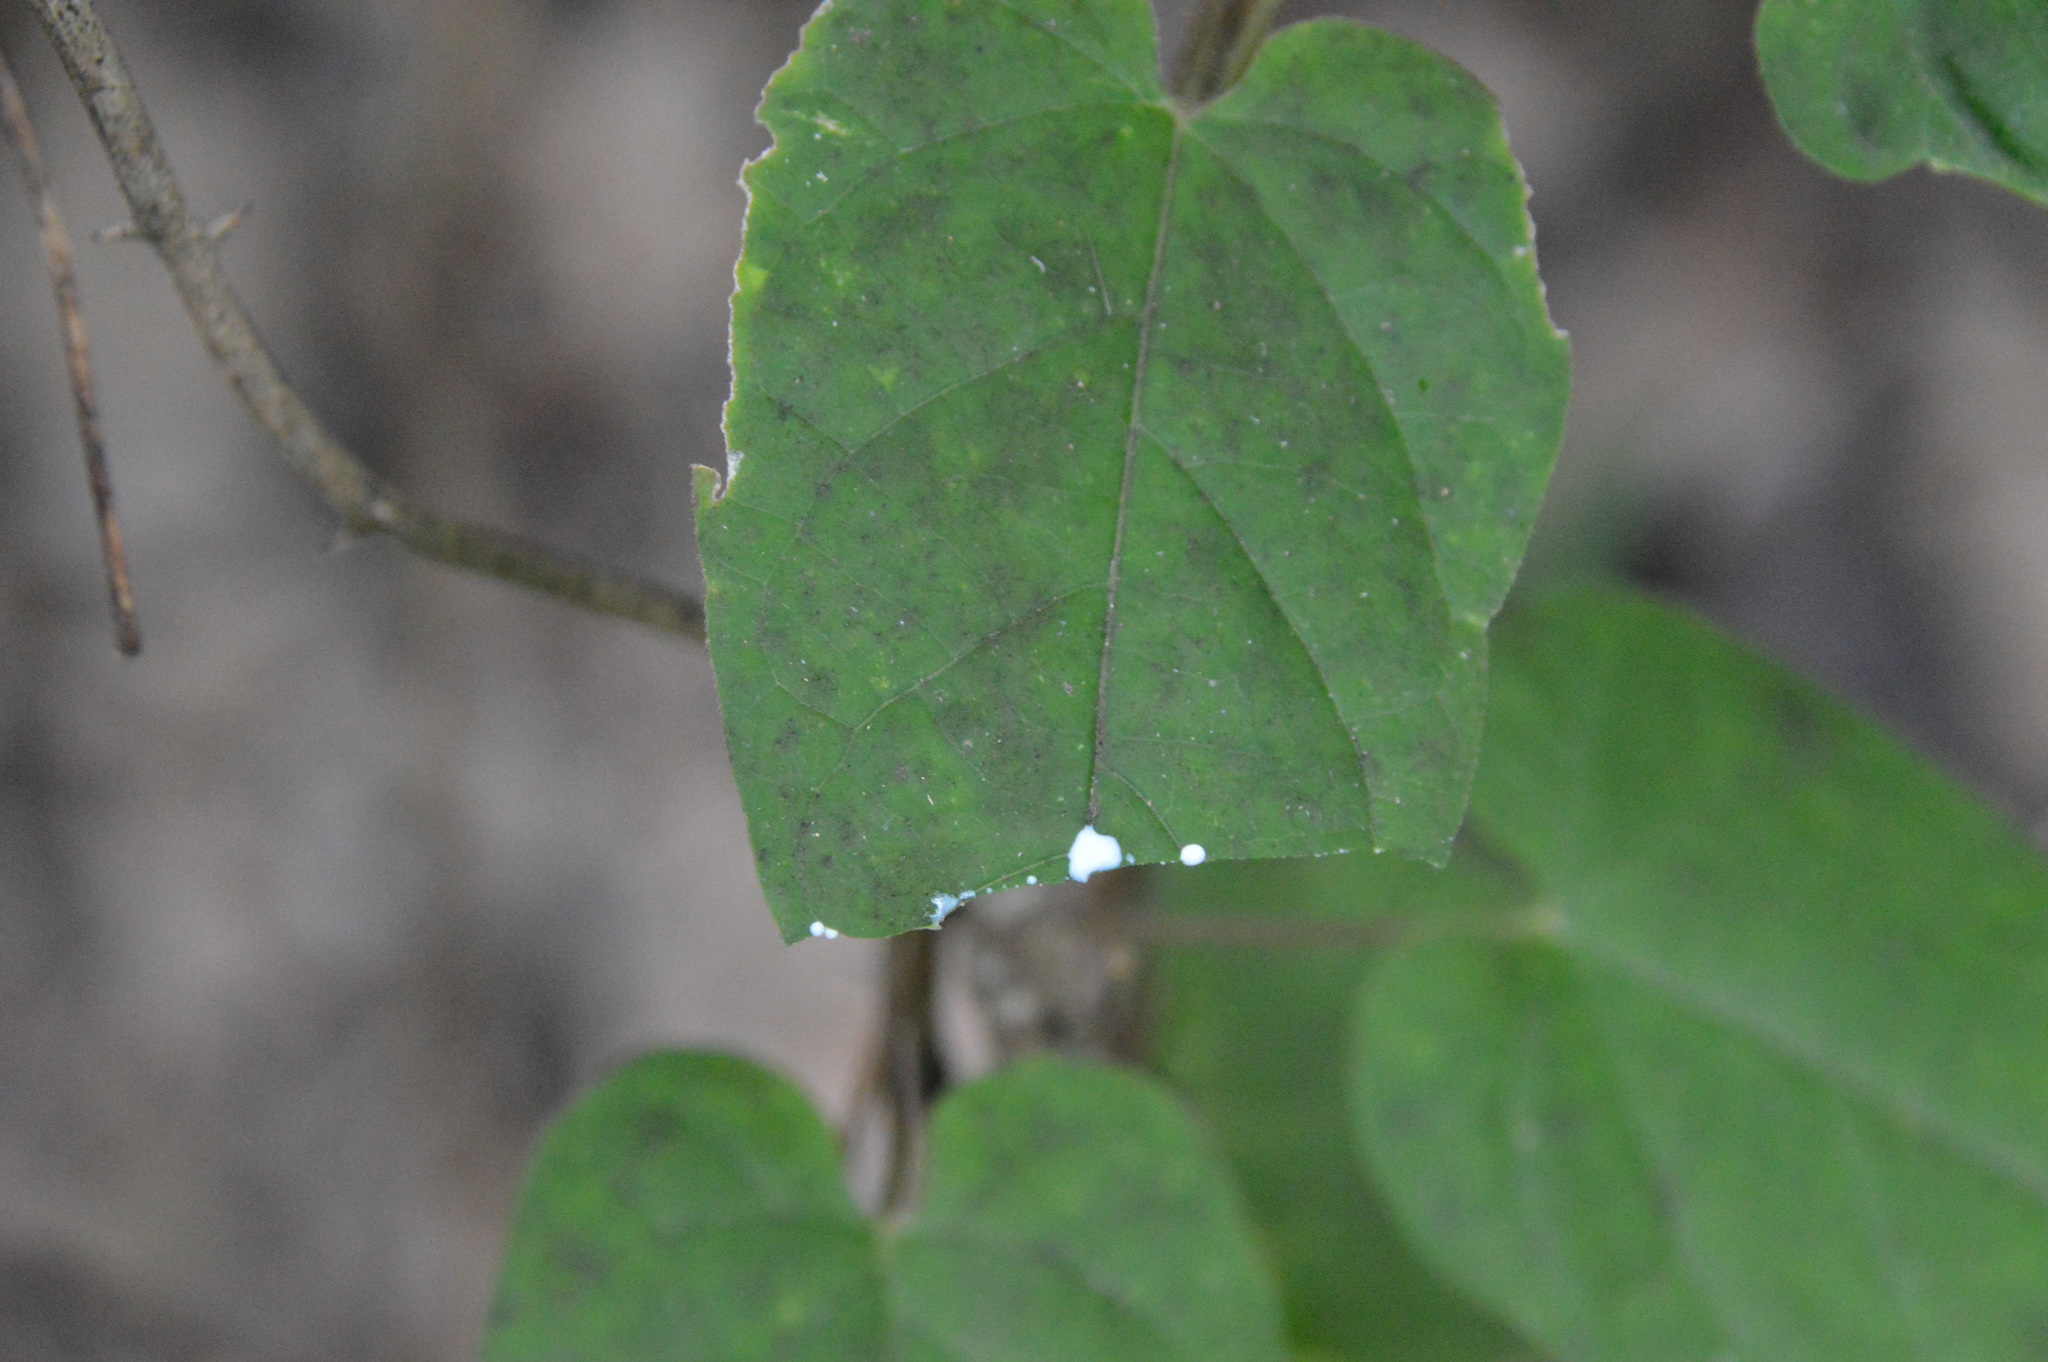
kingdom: Plantae
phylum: Tracheophyta
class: Magnoliopsida
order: Gentianales
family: Apocynaceae
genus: Gonolobus
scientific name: Gonolobus suberosus
